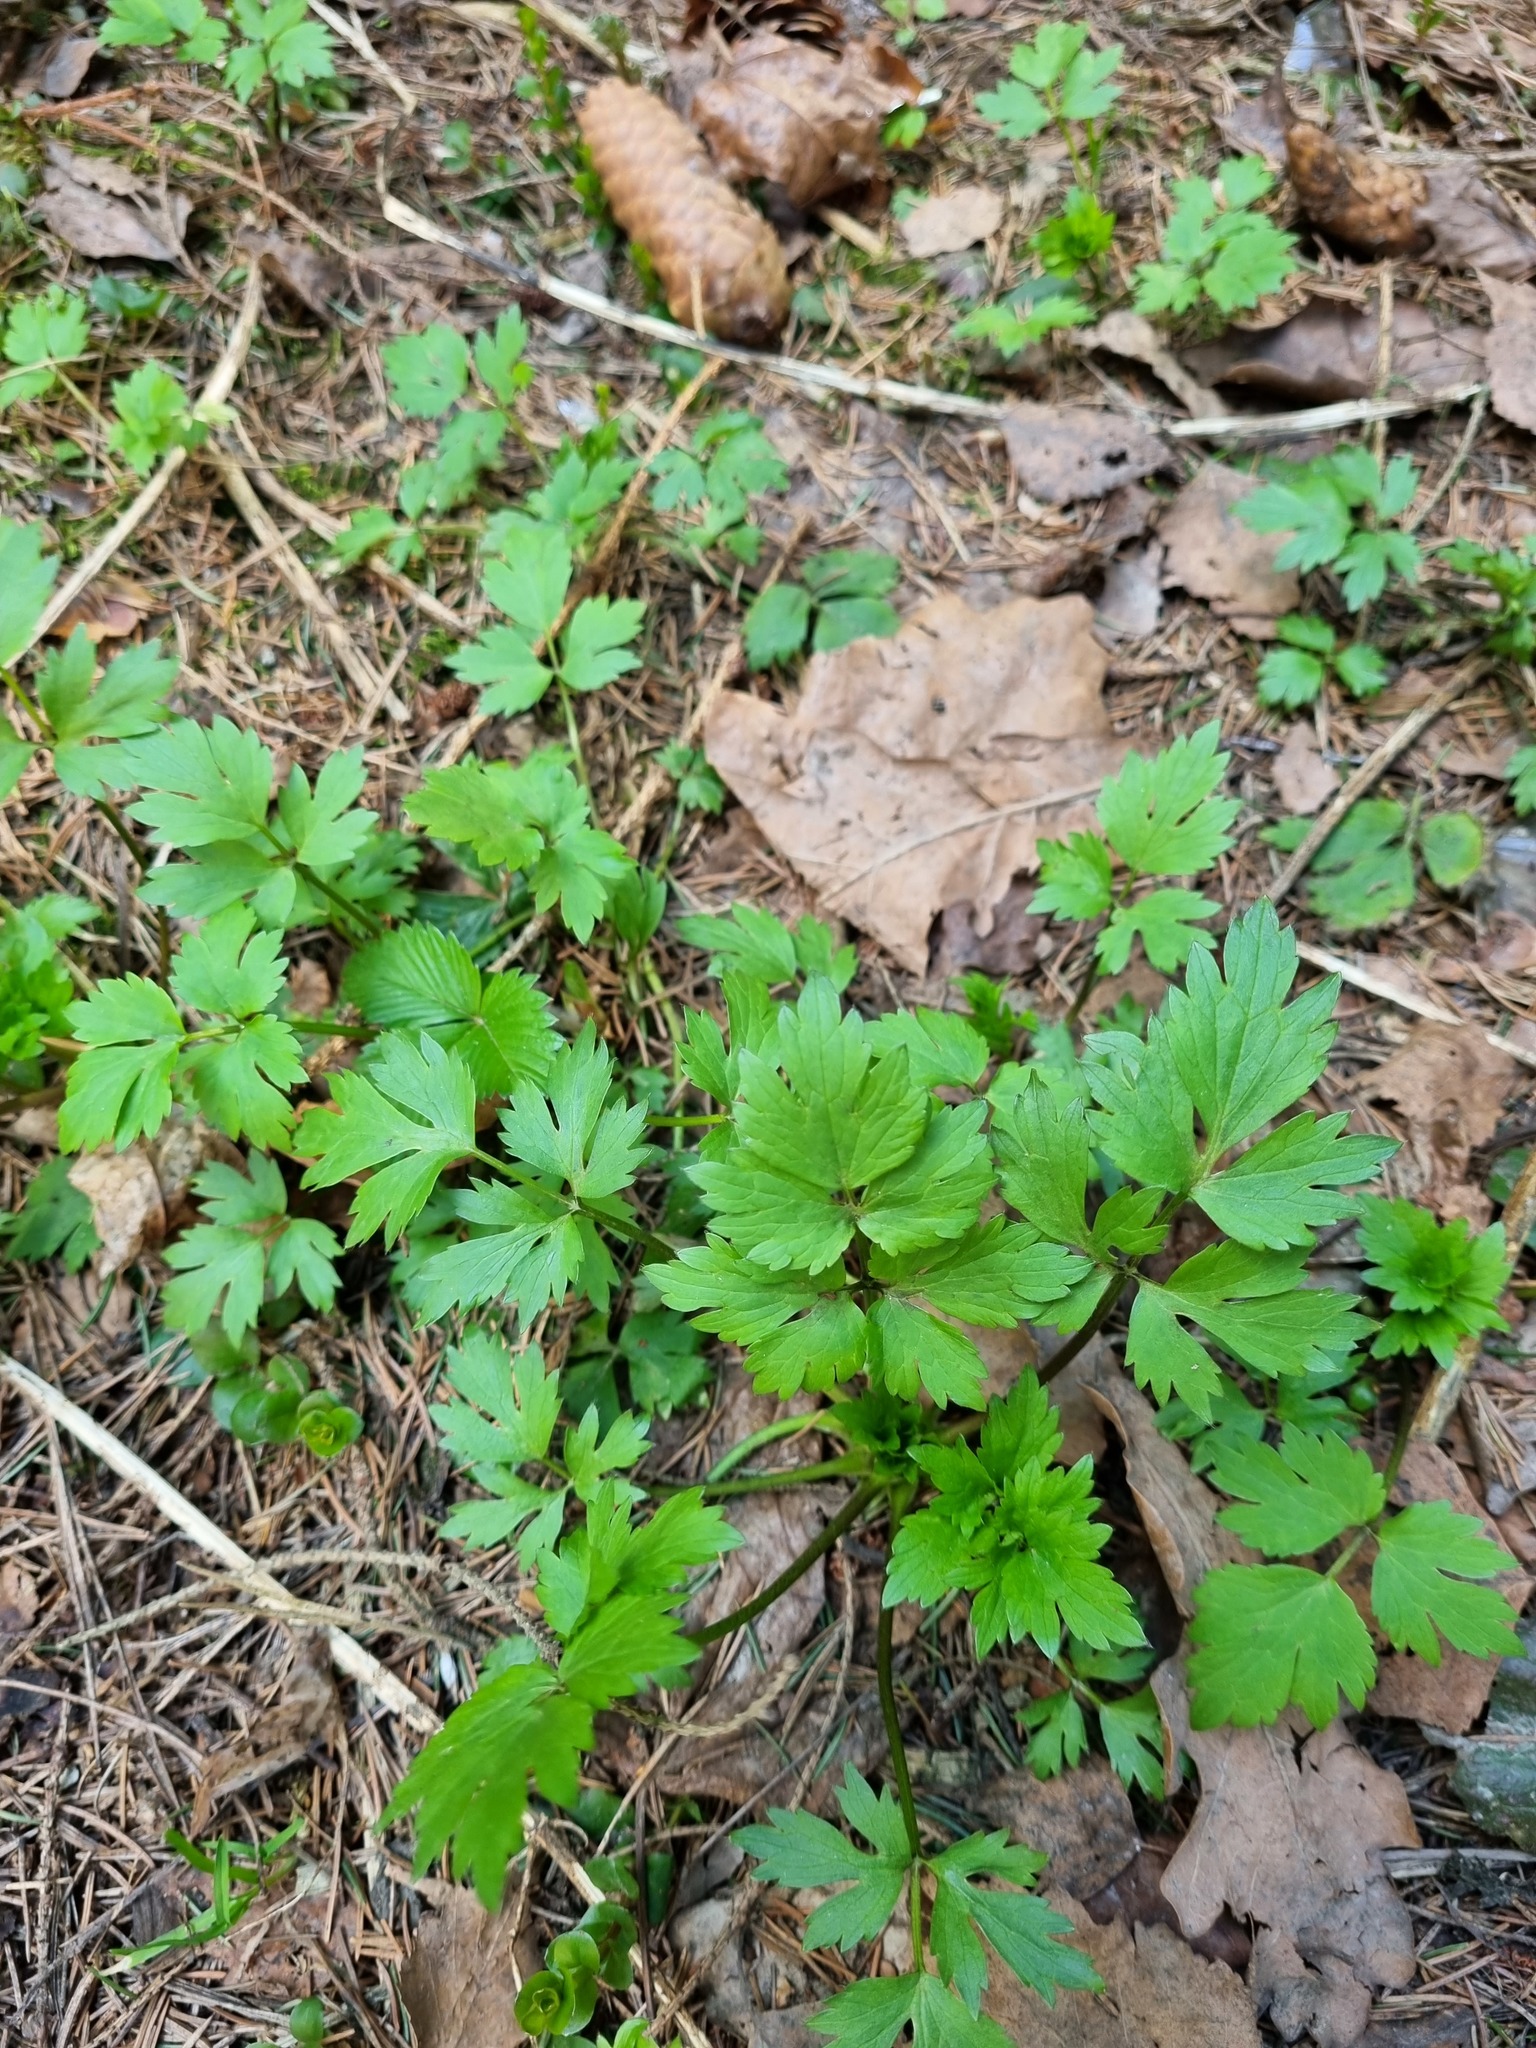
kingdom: Plantae
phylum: Tracheophyta
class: Magnoliopsida
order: Ranunculales
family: Ranunculaceae
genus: Ranunculus
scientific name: Ranunculus repens
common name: Creeping buttercup
